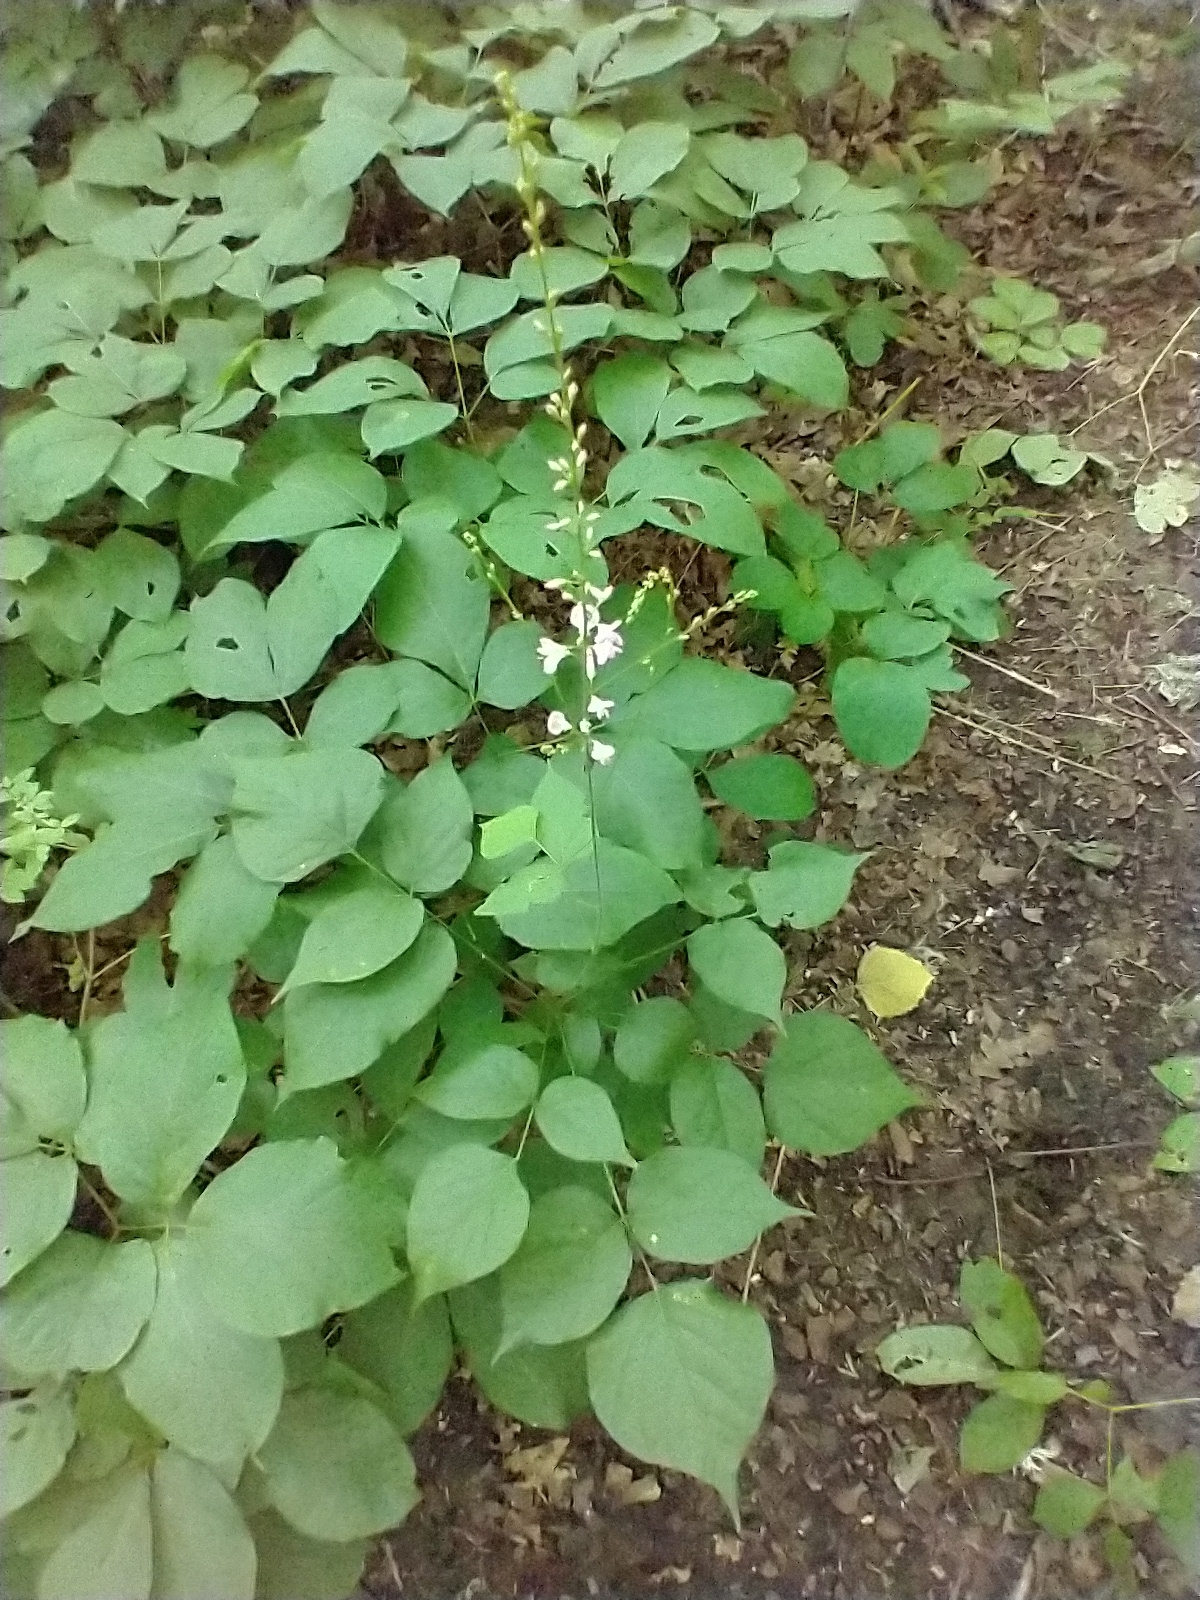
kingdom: Plantae
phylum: Tracheophyta
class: Magnoliopsida
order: Fabales
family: Fabaceae
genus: Hylodesmum
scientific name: Hylodesmum glutinosum
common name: Clustered-leaved tick-trefoil
